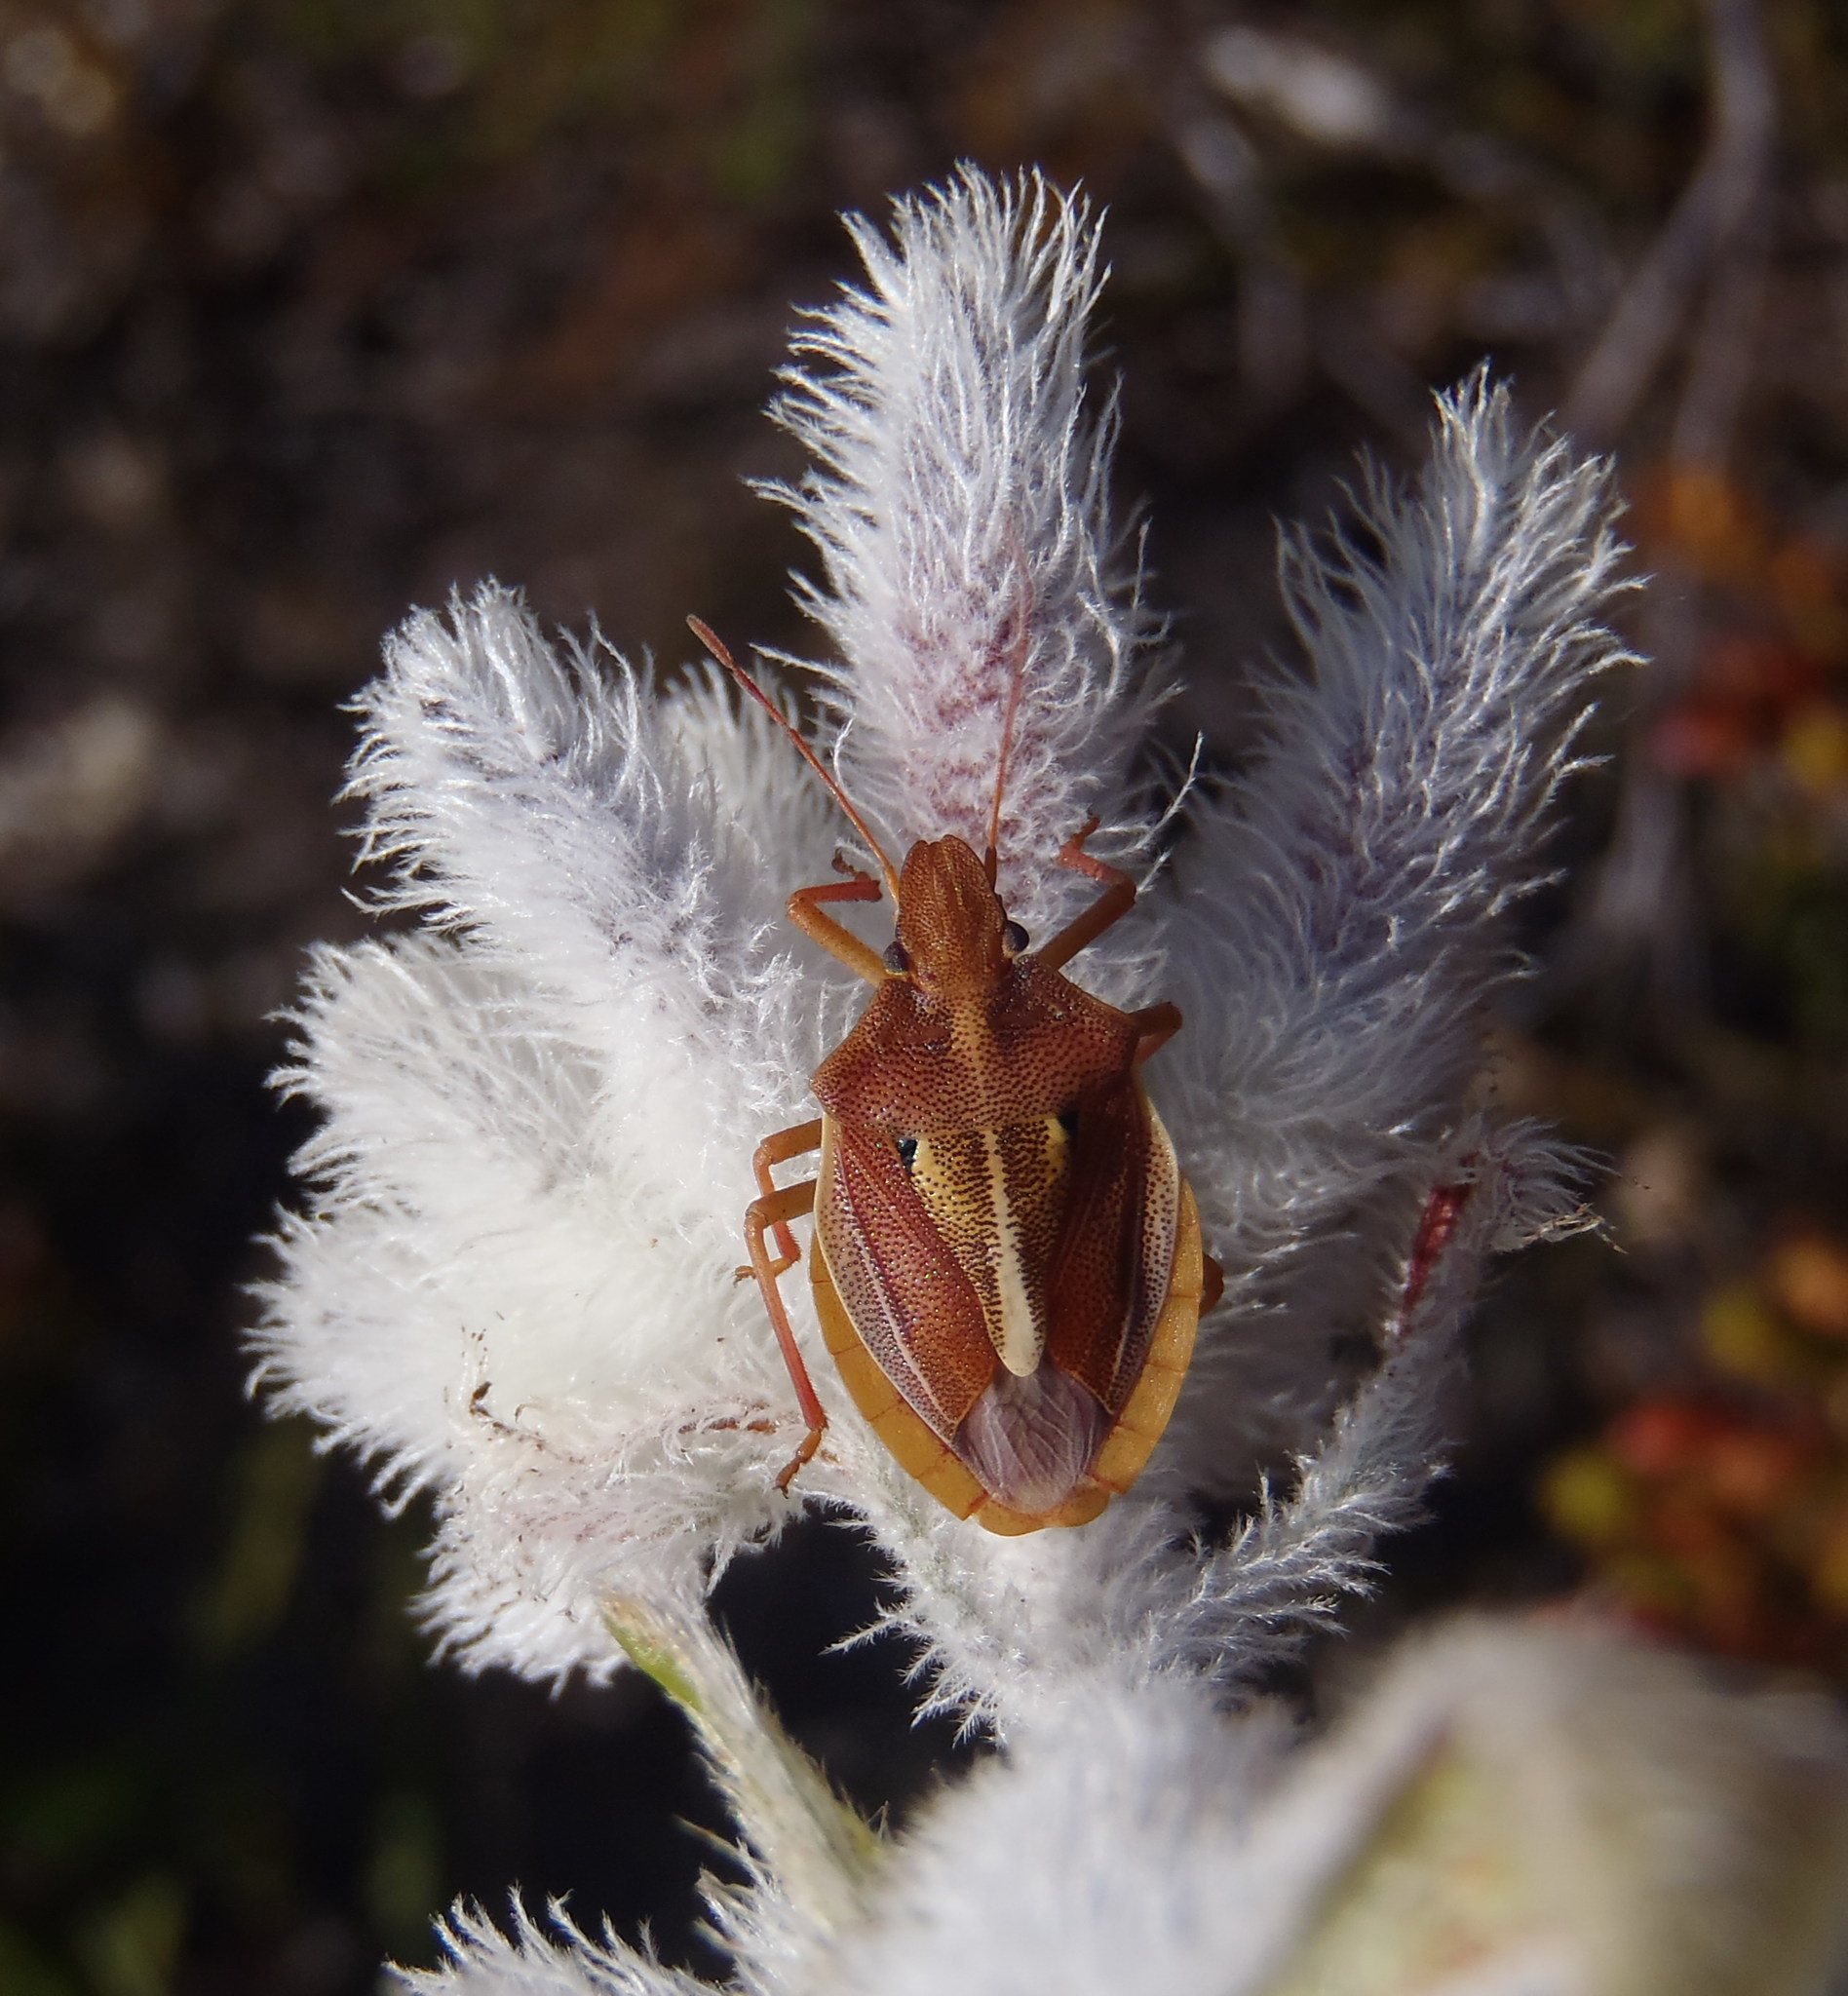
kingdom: Animalia
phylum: Arthropoda
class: Insecta
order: Hemiptera
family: Pentatomidae
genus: Tropicorypha
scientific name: Tropicorypha
